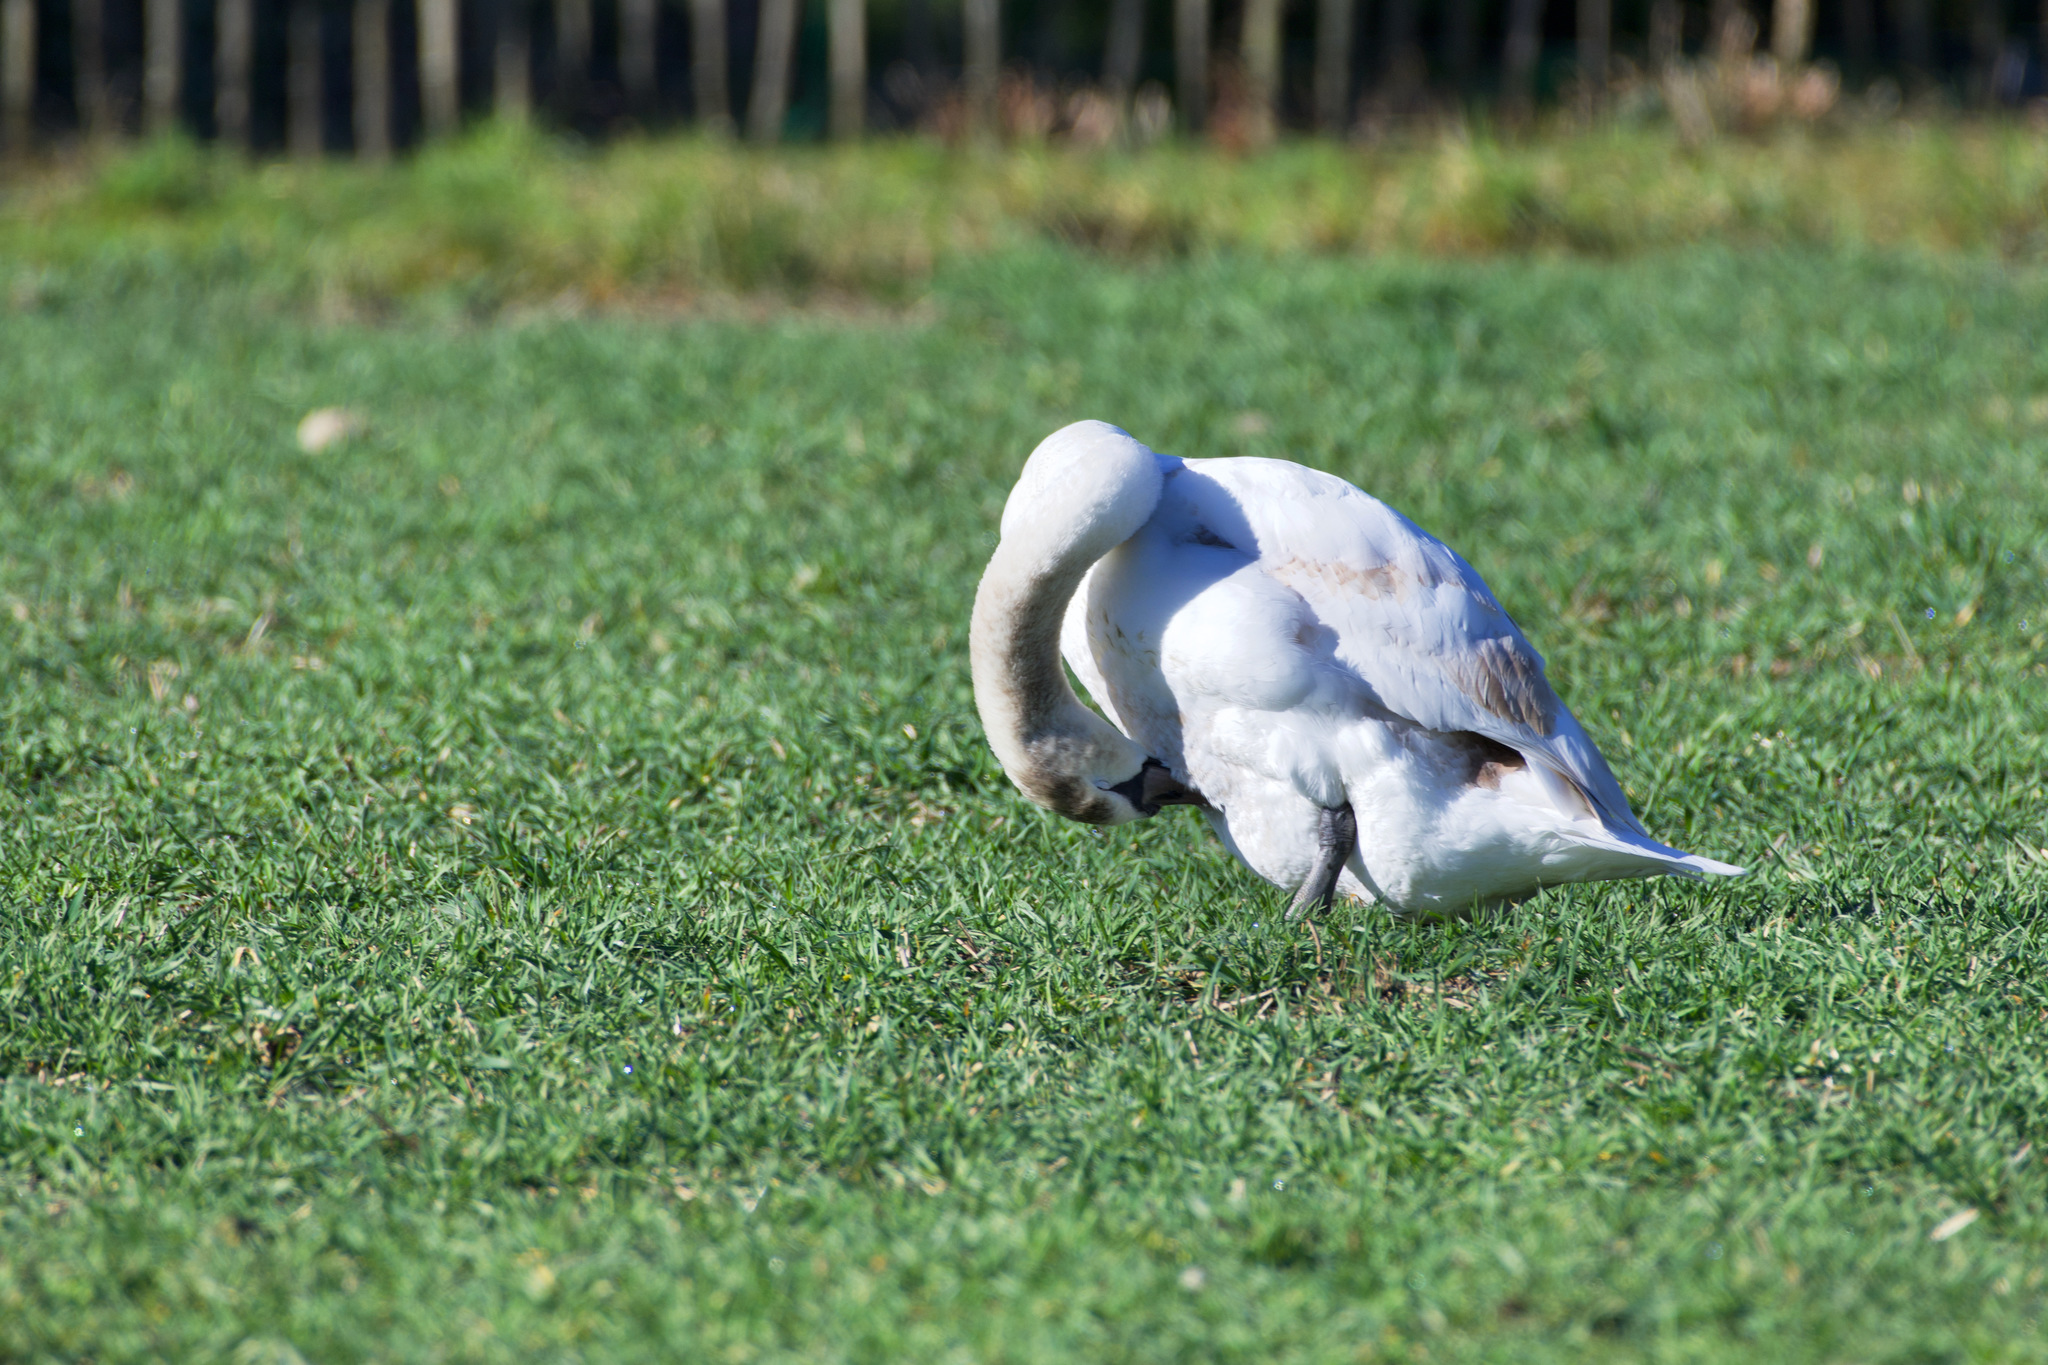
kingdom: Animalia
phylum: Chordata
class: Aves
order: Anseriformes
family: Anatidae
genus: Cygnus
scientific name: Cygnus olor
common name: Mute swan
